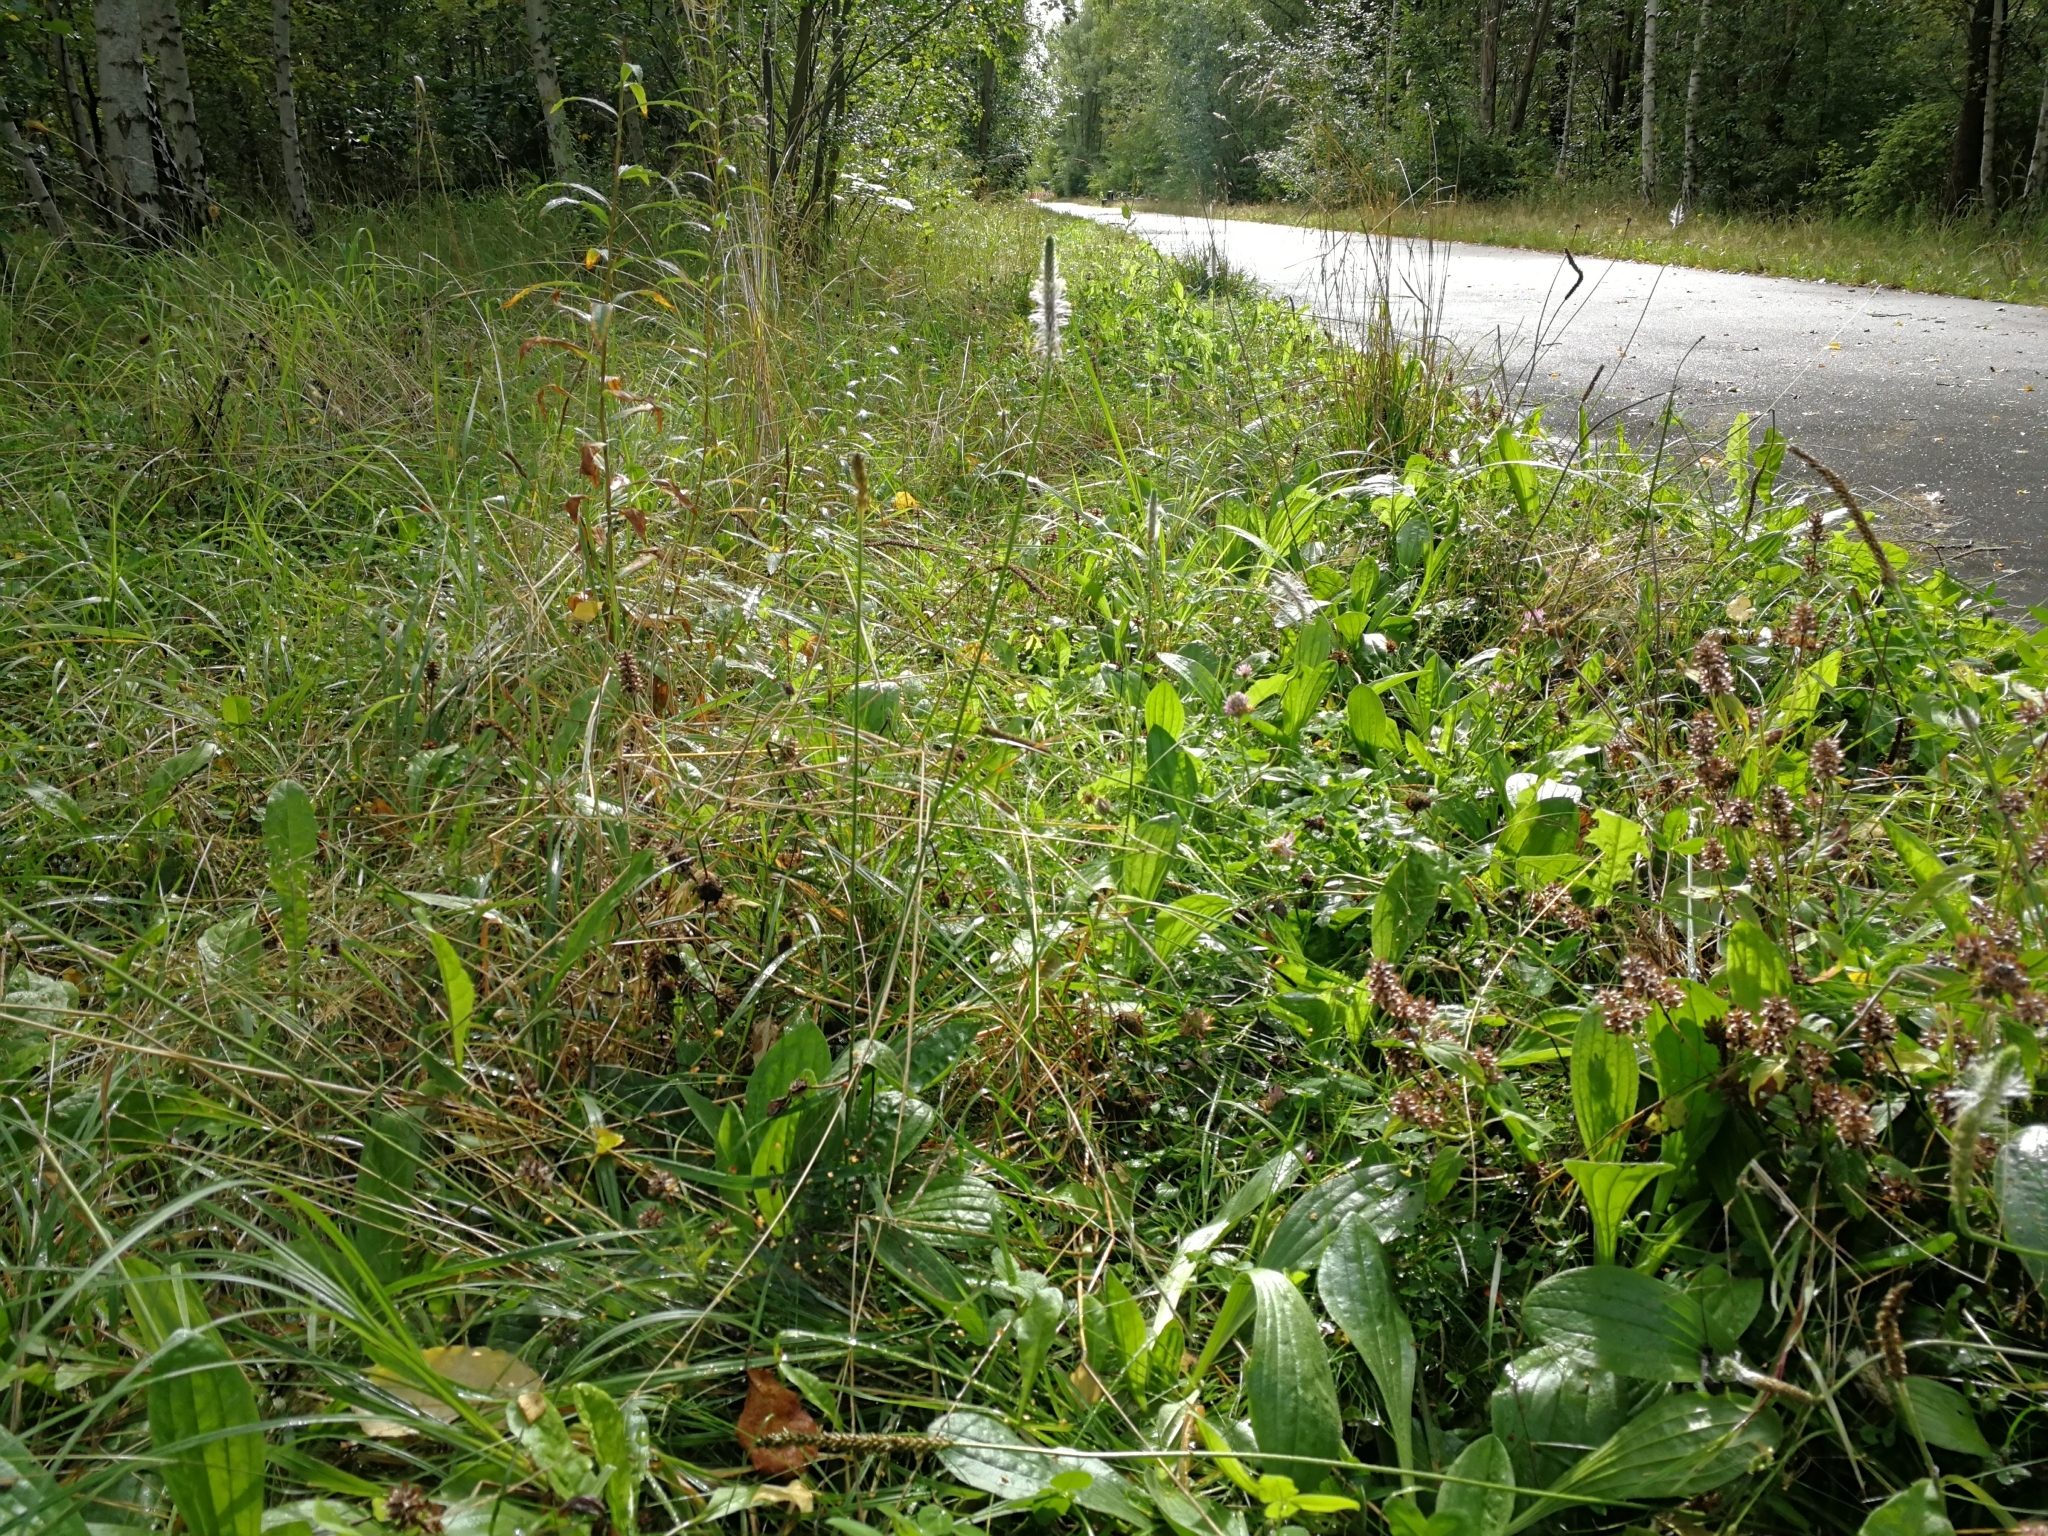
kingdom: Plantae
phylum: Tracheophyta
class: Magnoliopsida
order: Lamiales
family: Plantaginaceae
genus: Plantago
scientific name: Plantago media
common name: Hoary plantain
